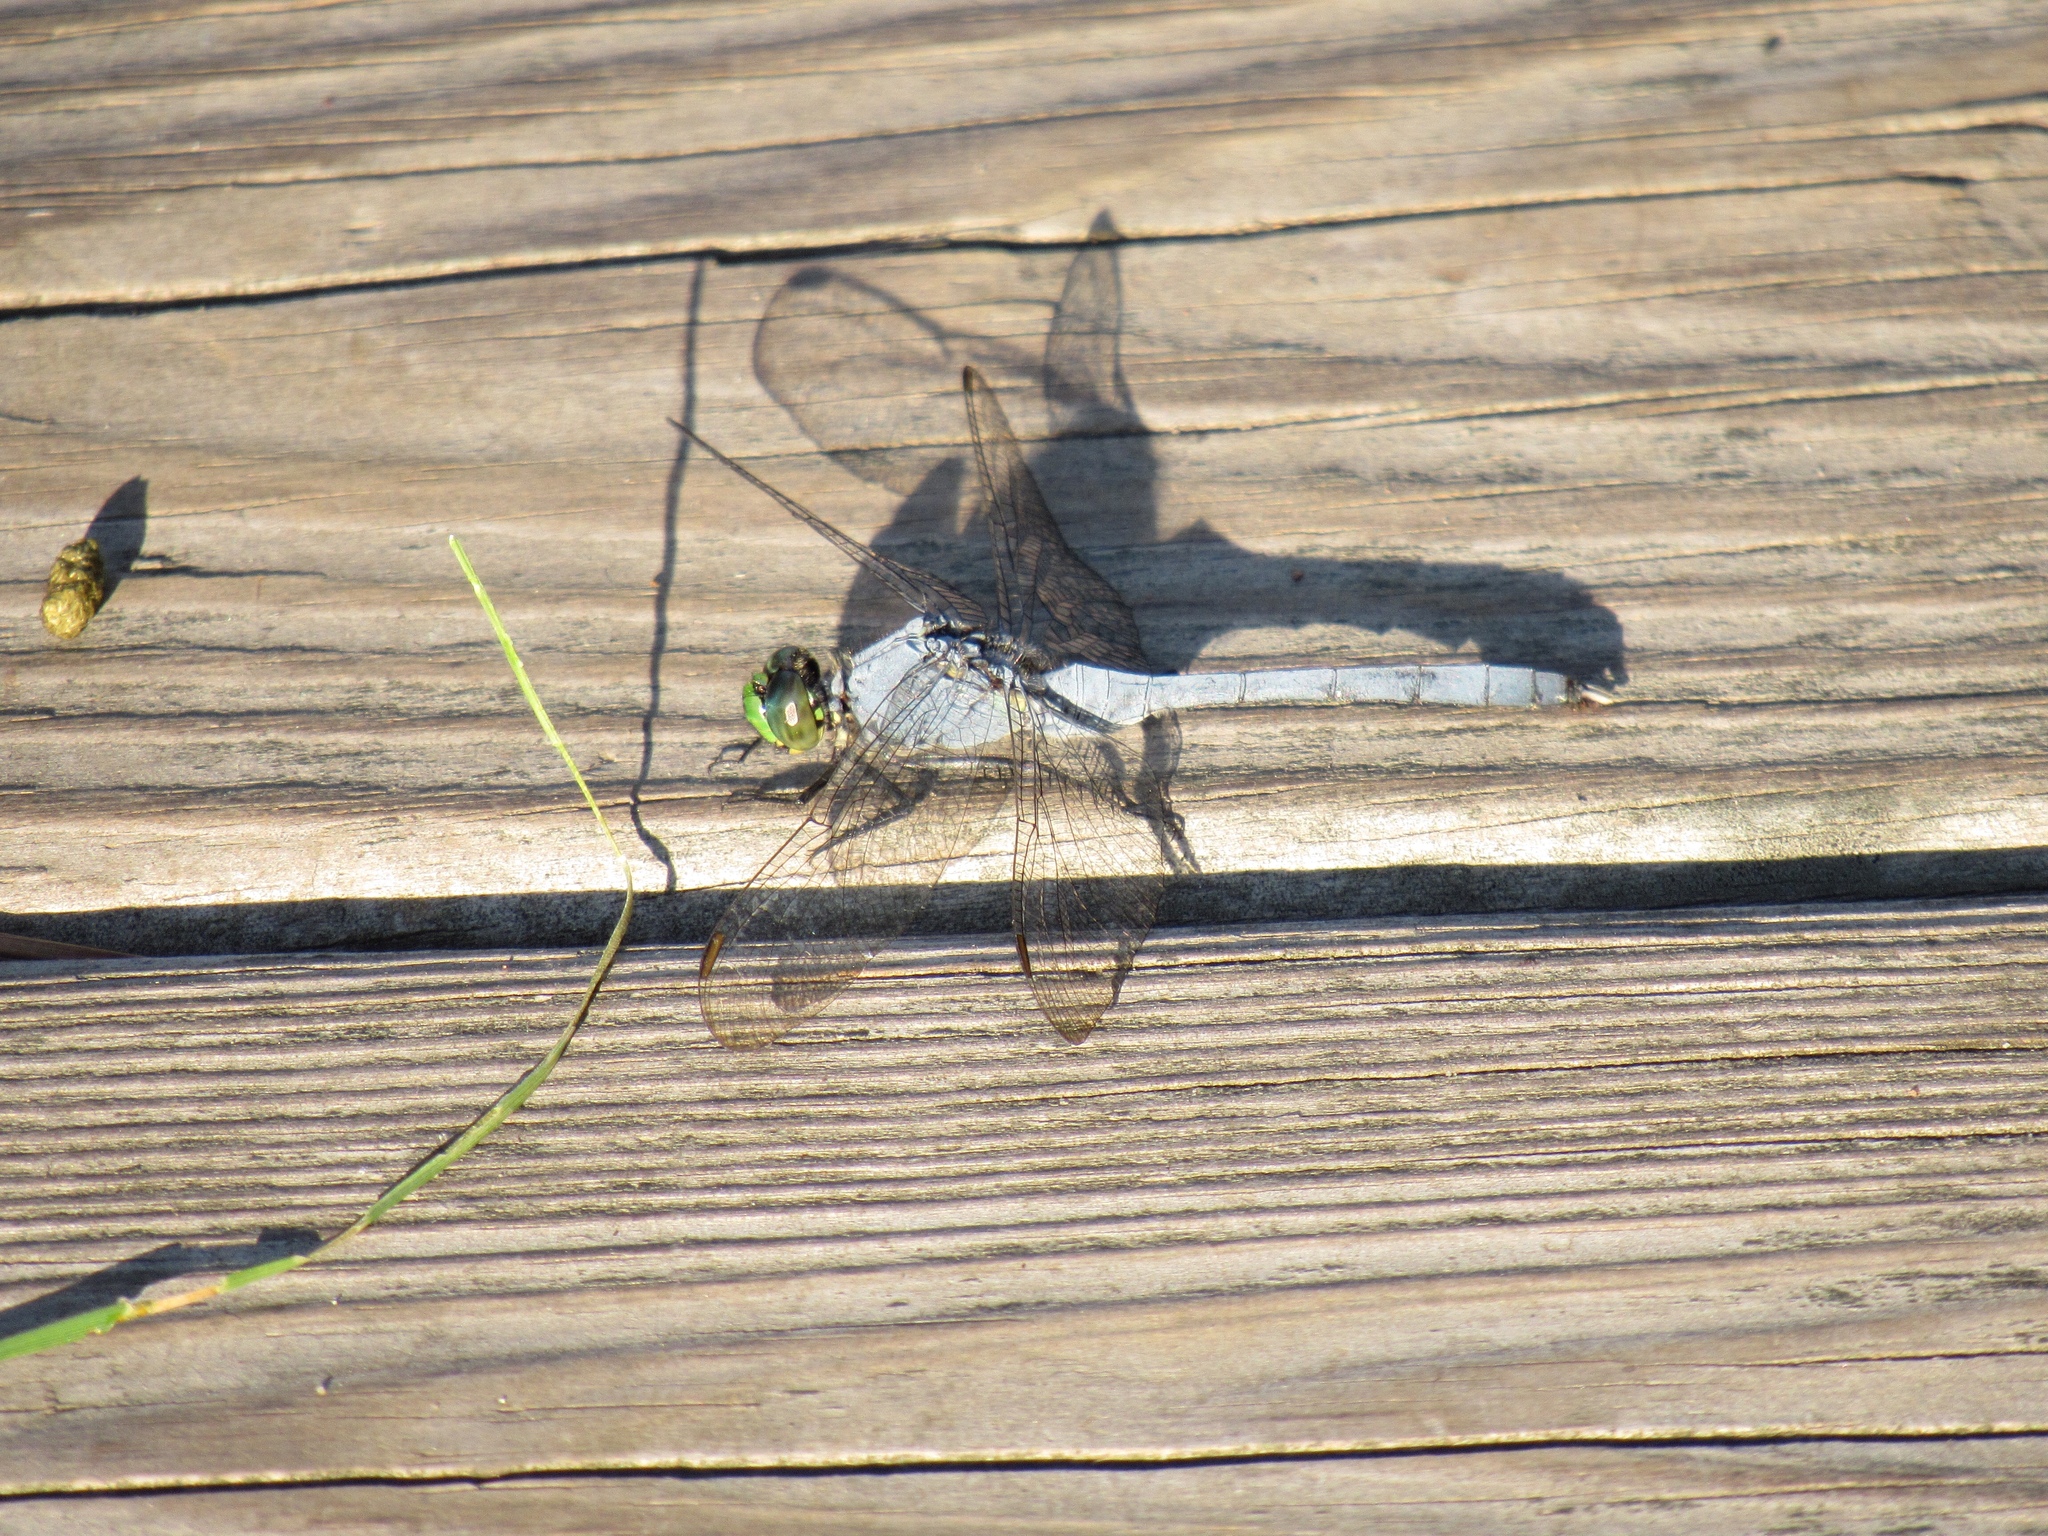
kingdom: Animalia
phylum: Arthropoda
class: Insecta
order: Odonata
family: Libellulidae
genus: Erythemis
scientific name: Erythemis simplicicollis
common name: Eastern pondhawk
